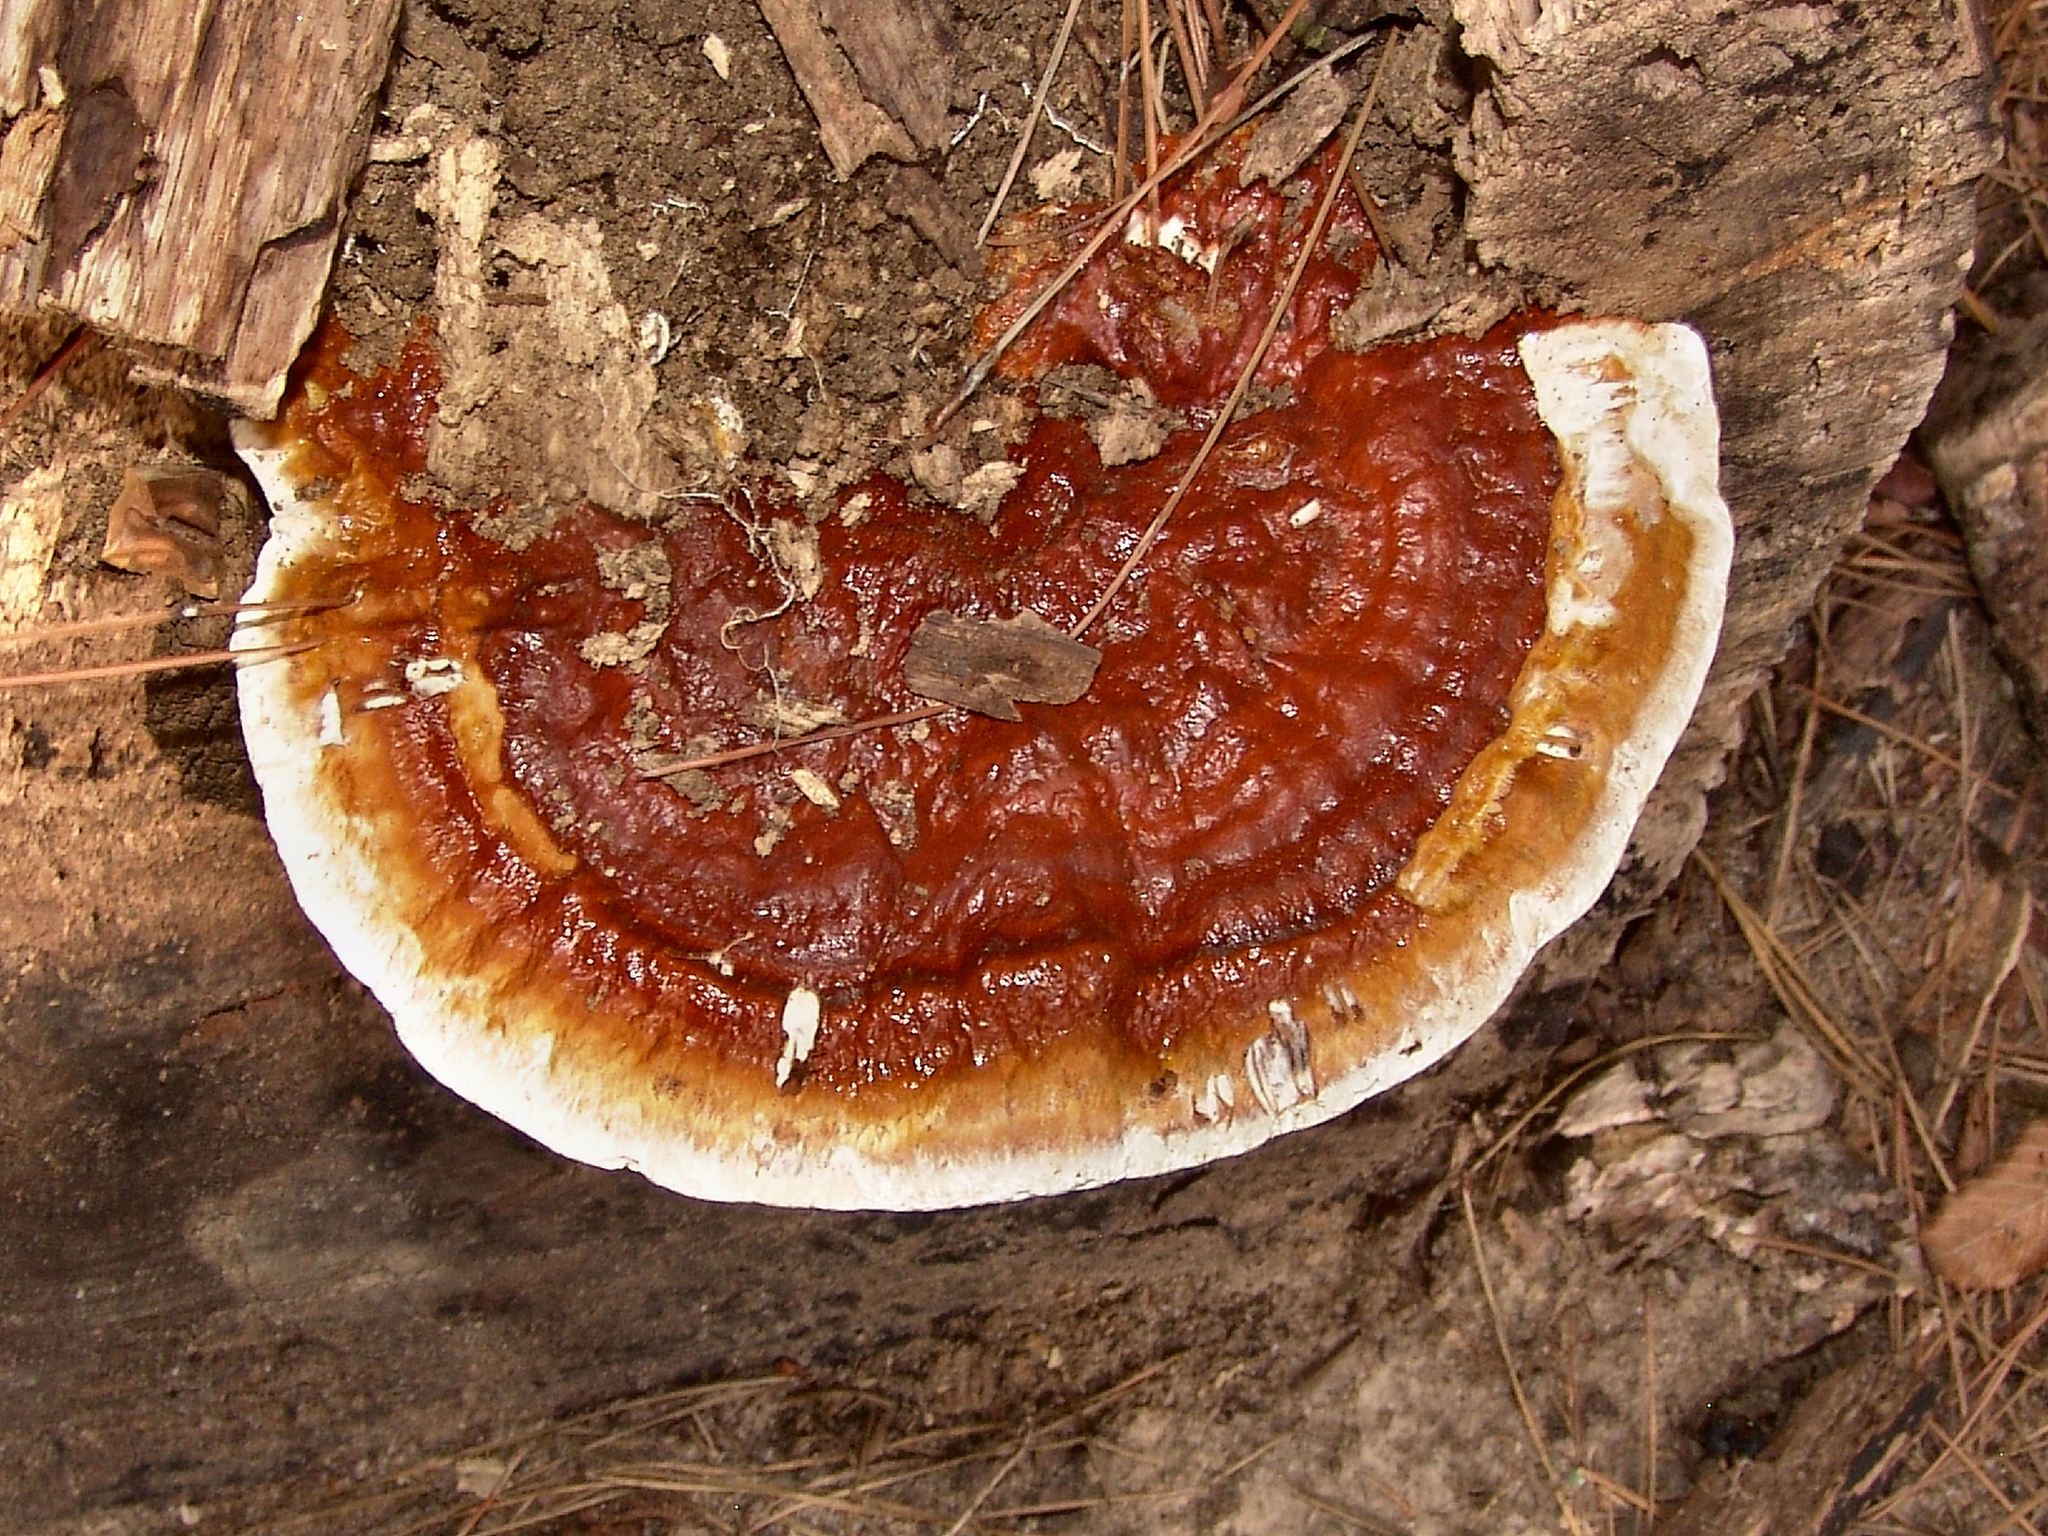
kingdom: Fungi
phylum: Basidiomycota
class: Agaricomycetes
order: Polyporales
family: Polyporaceae
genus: Ganoderma
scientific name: Ganoderma resinaceum
